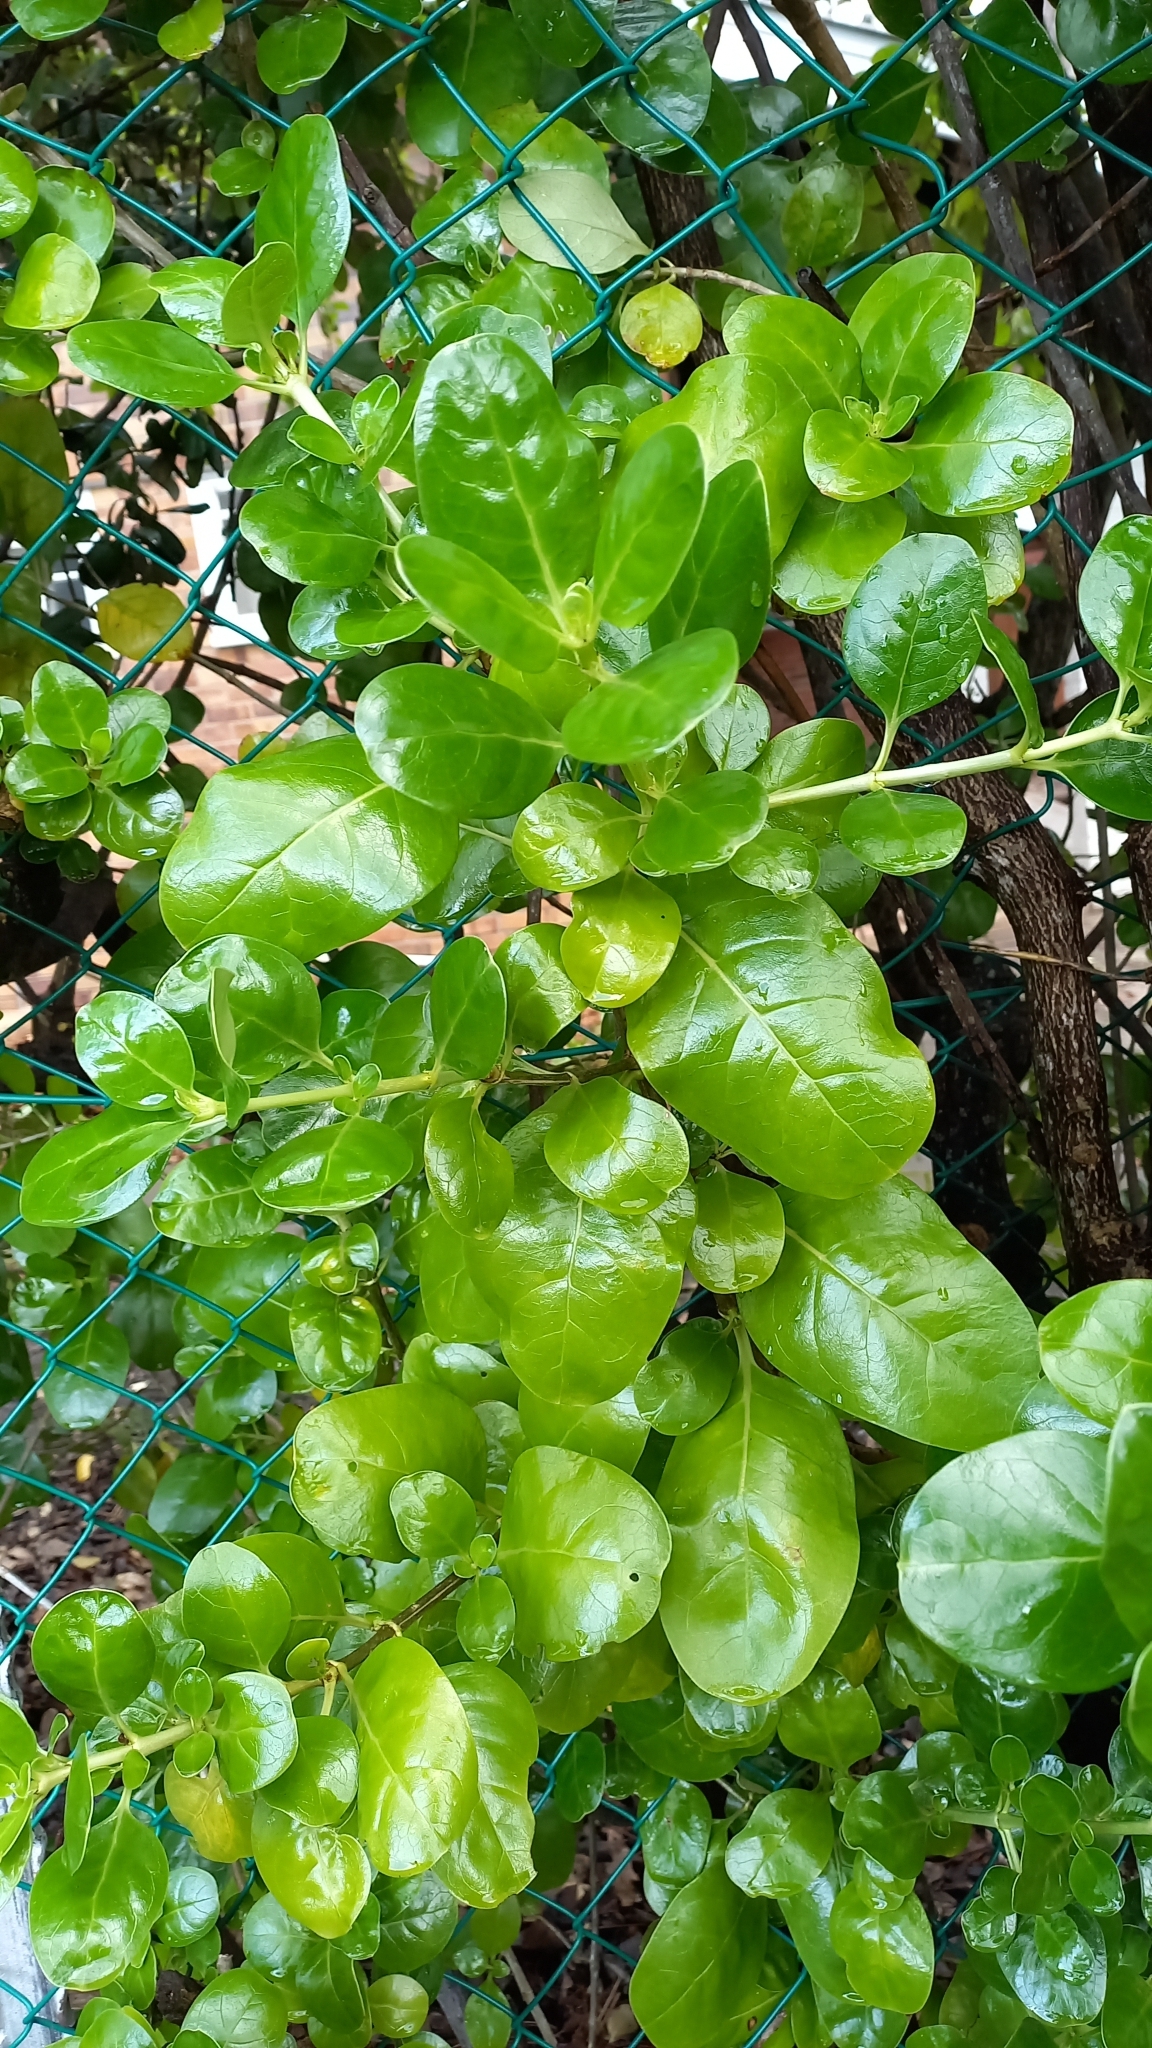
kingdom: Plantae
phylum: Tracheophyta
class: Magnoliopsida
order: Gentianales
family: Rubiaceae
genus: Coprosma
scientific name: Coprosma repens
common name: Tree bedstraw
